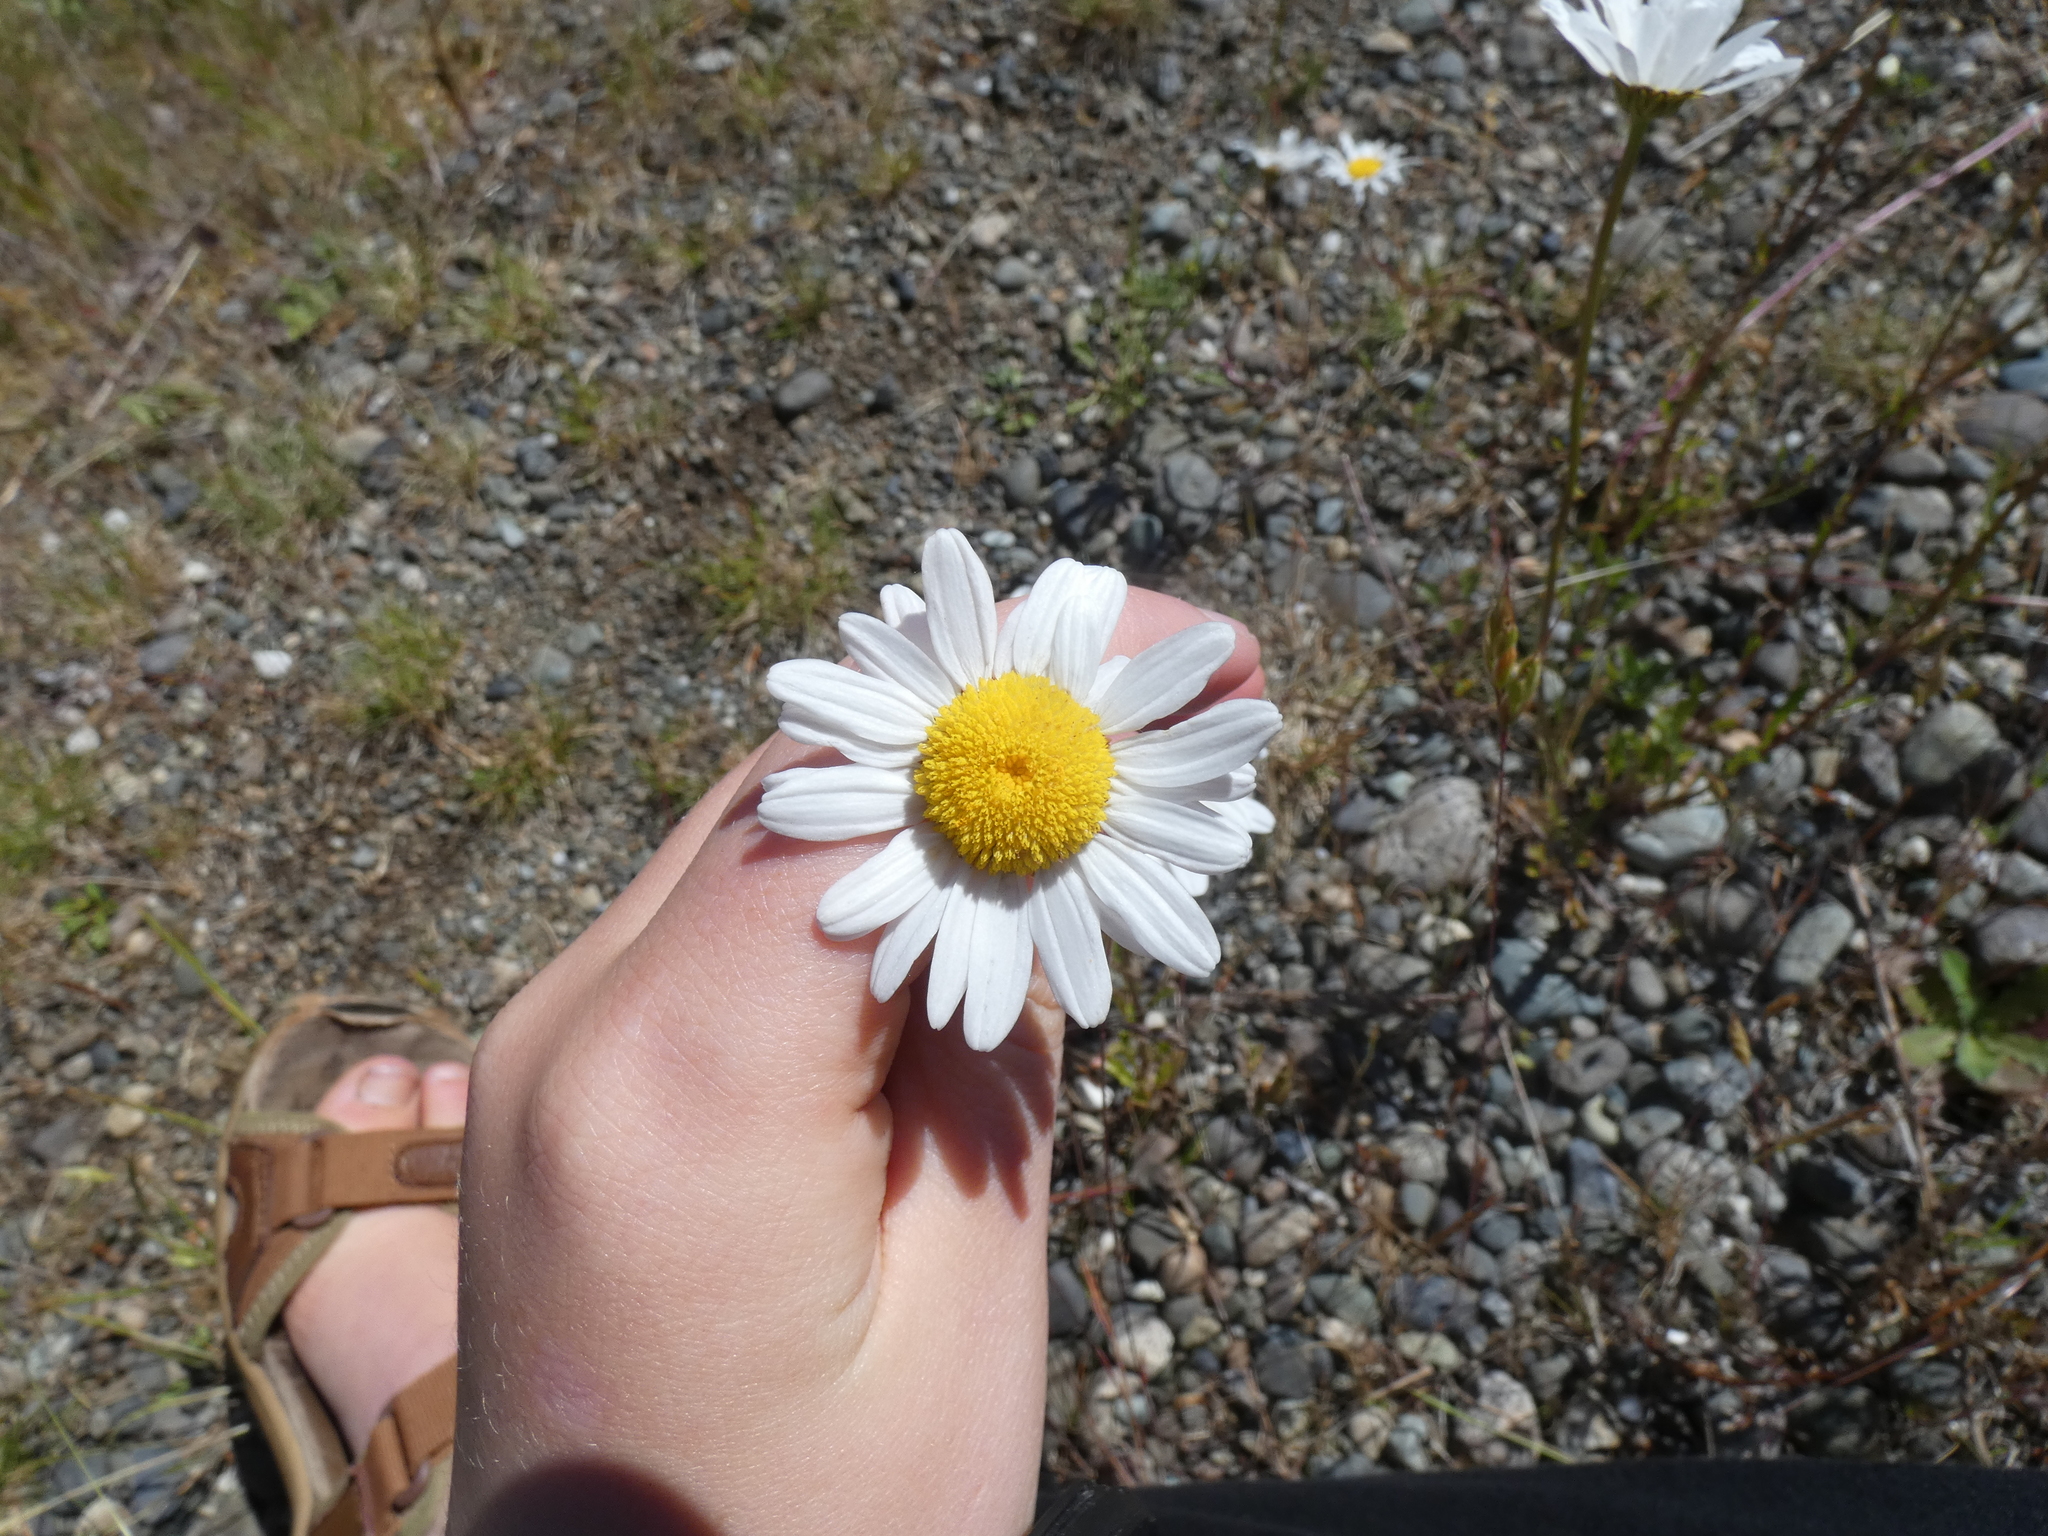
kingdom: Plantae
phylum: Tracheophyta
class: Magnoliopsida
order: Asterales
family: Asteraceae
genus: Leucanthemum
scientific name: Leucanthemum vulgare
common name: Oxeye daisy
